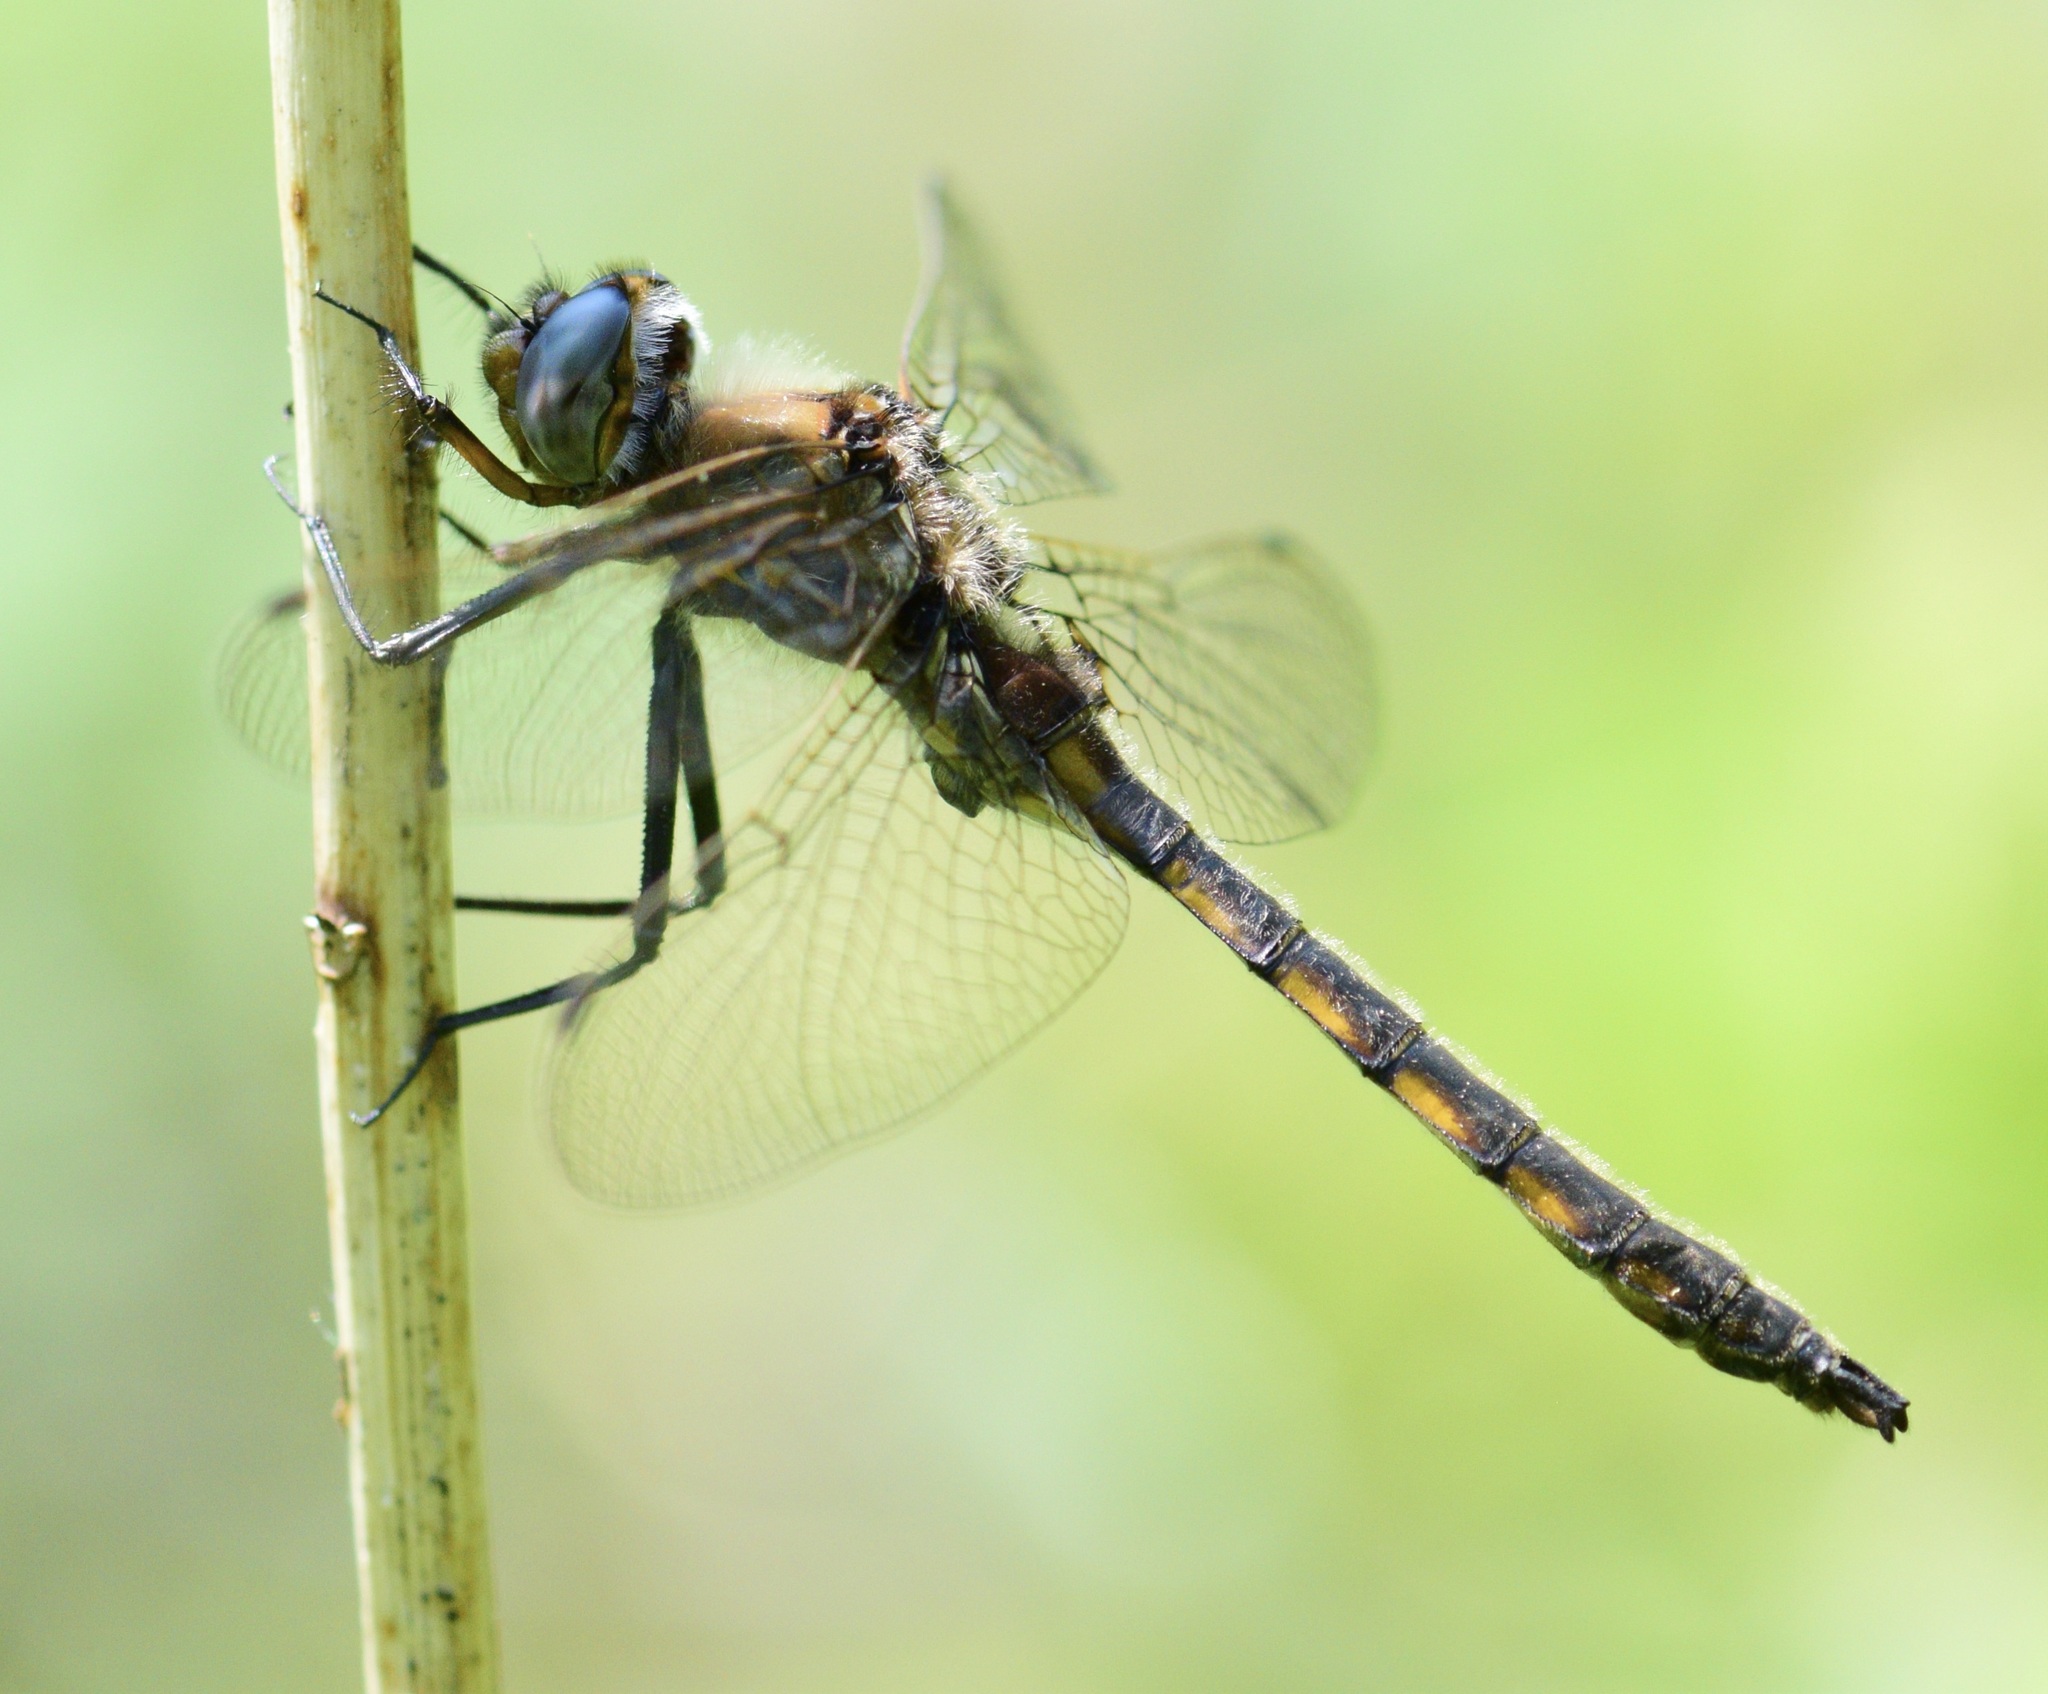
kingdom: Animalia
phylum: Arthropoda
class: Insecta
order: Odonata
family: Corduliidae
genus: Epitheca
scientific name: Epitheca canis
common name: Beaverpond baskettail
